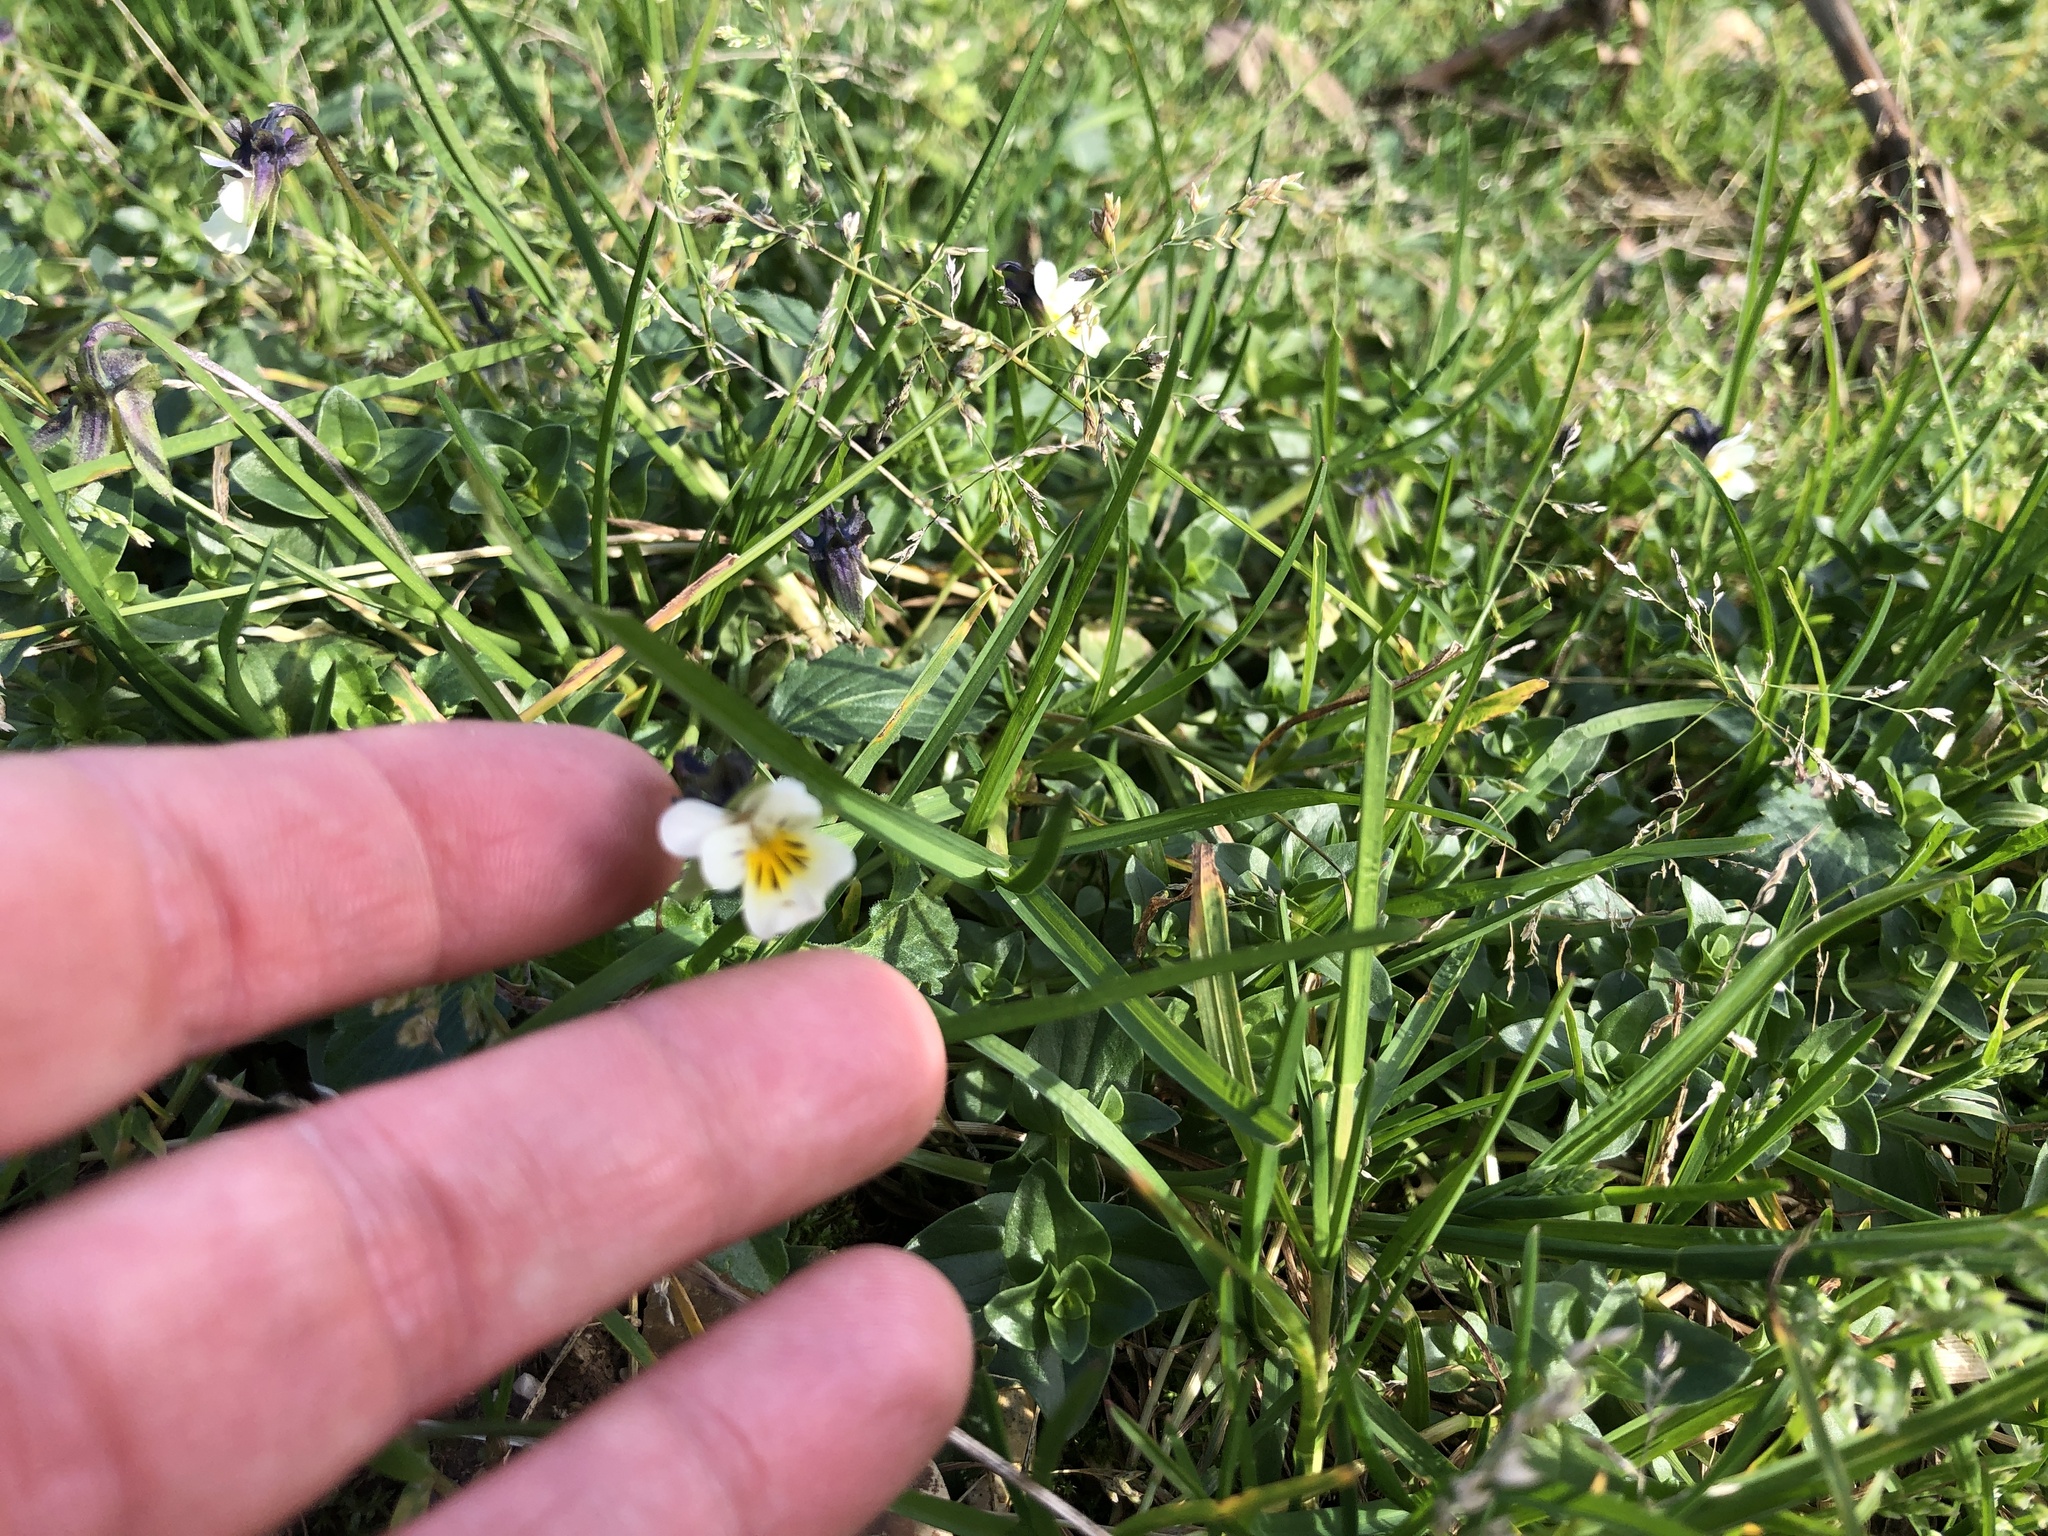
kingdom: Plantae
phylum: Tracheophyta
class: Magnoliopsida
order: Malpighiales
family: Violaceae
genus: Viola
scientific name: Viola arvensis
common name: Field pansy
